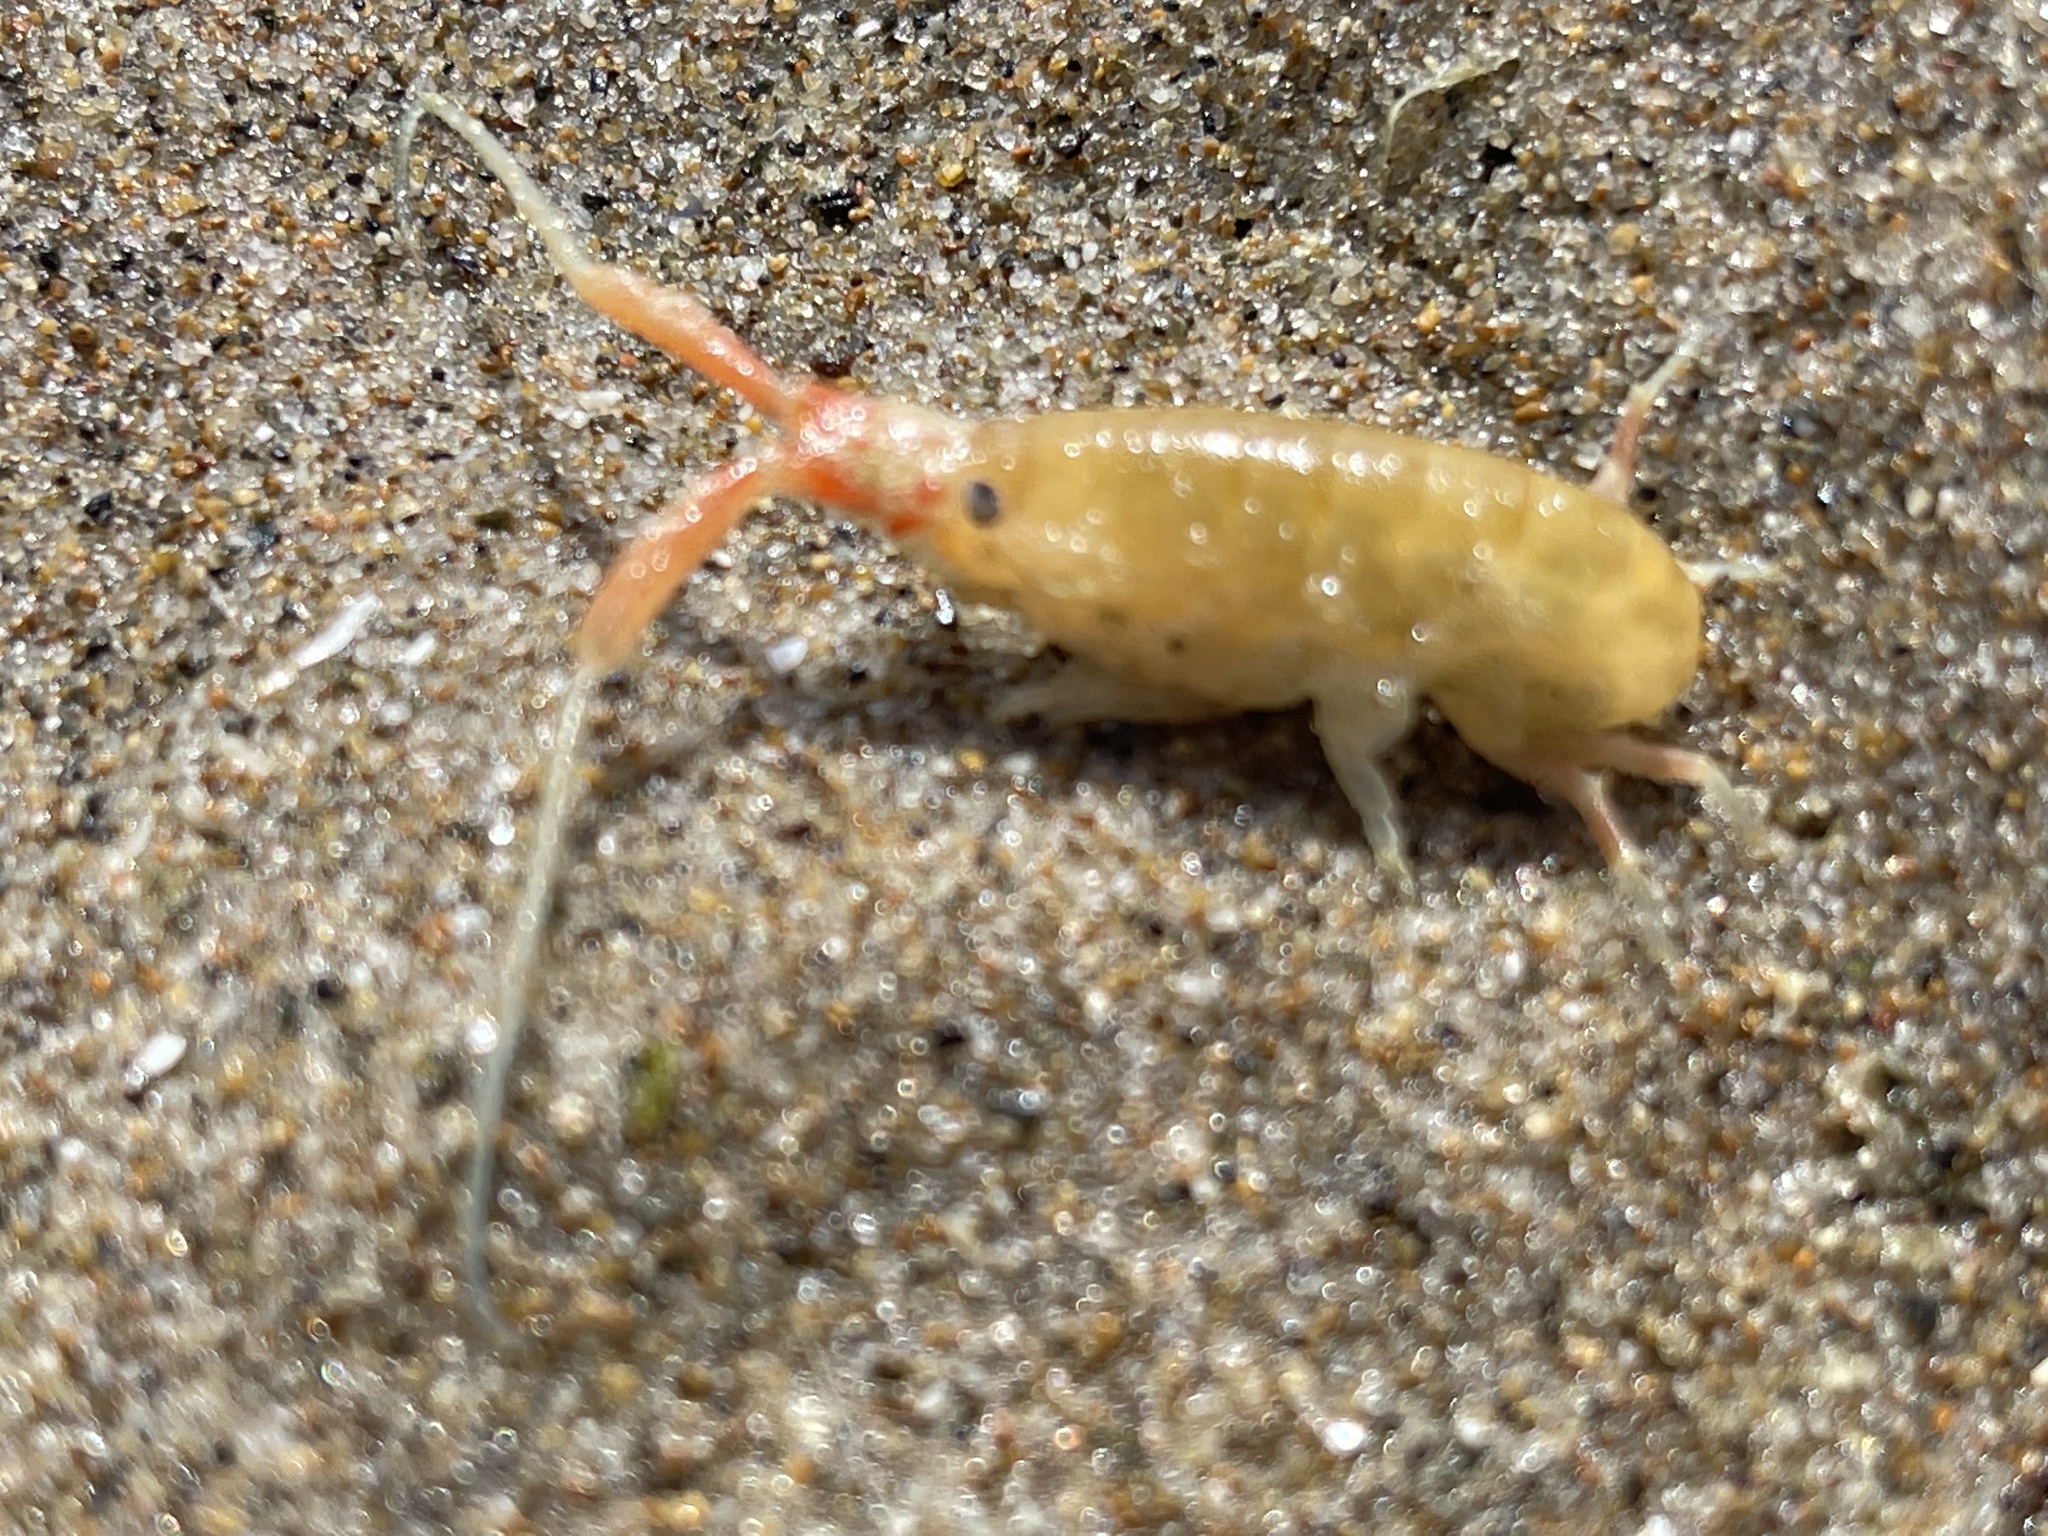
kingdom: Animalia
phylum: Arthropoda
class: Malacostraca
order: Amphipoda
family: Talitridae
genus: Megalorchestia
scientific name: Megalorchestia californiana
